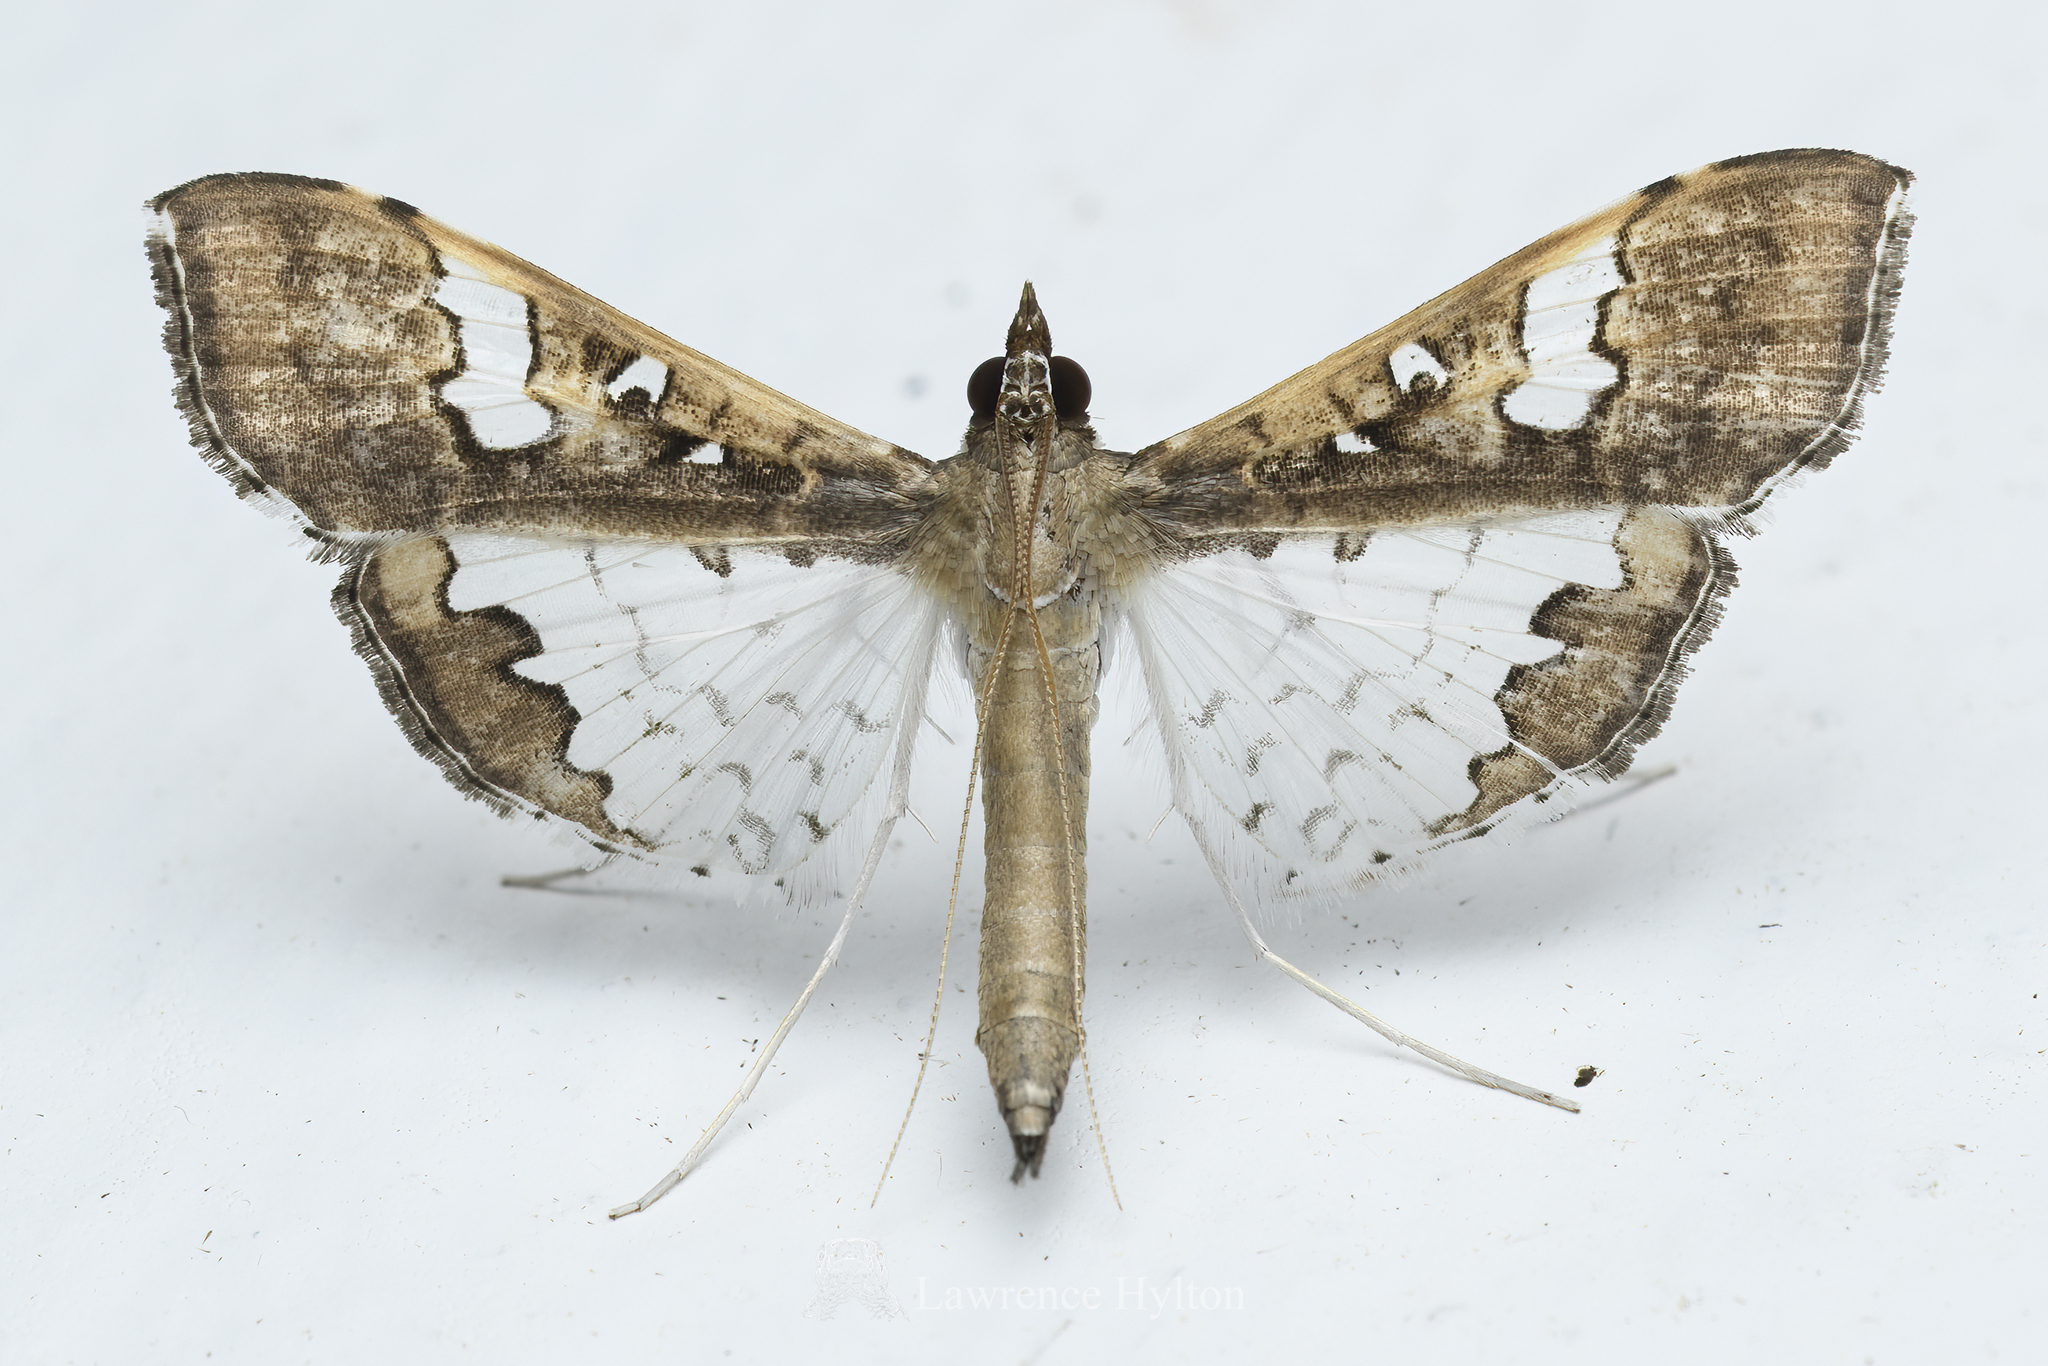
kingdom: Animalia
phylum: Arthropoda
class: Insecta
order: Lepidoptera
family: Crambidae
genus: Maruca
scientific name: Maruca vitrata
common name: Maruca pod borer
